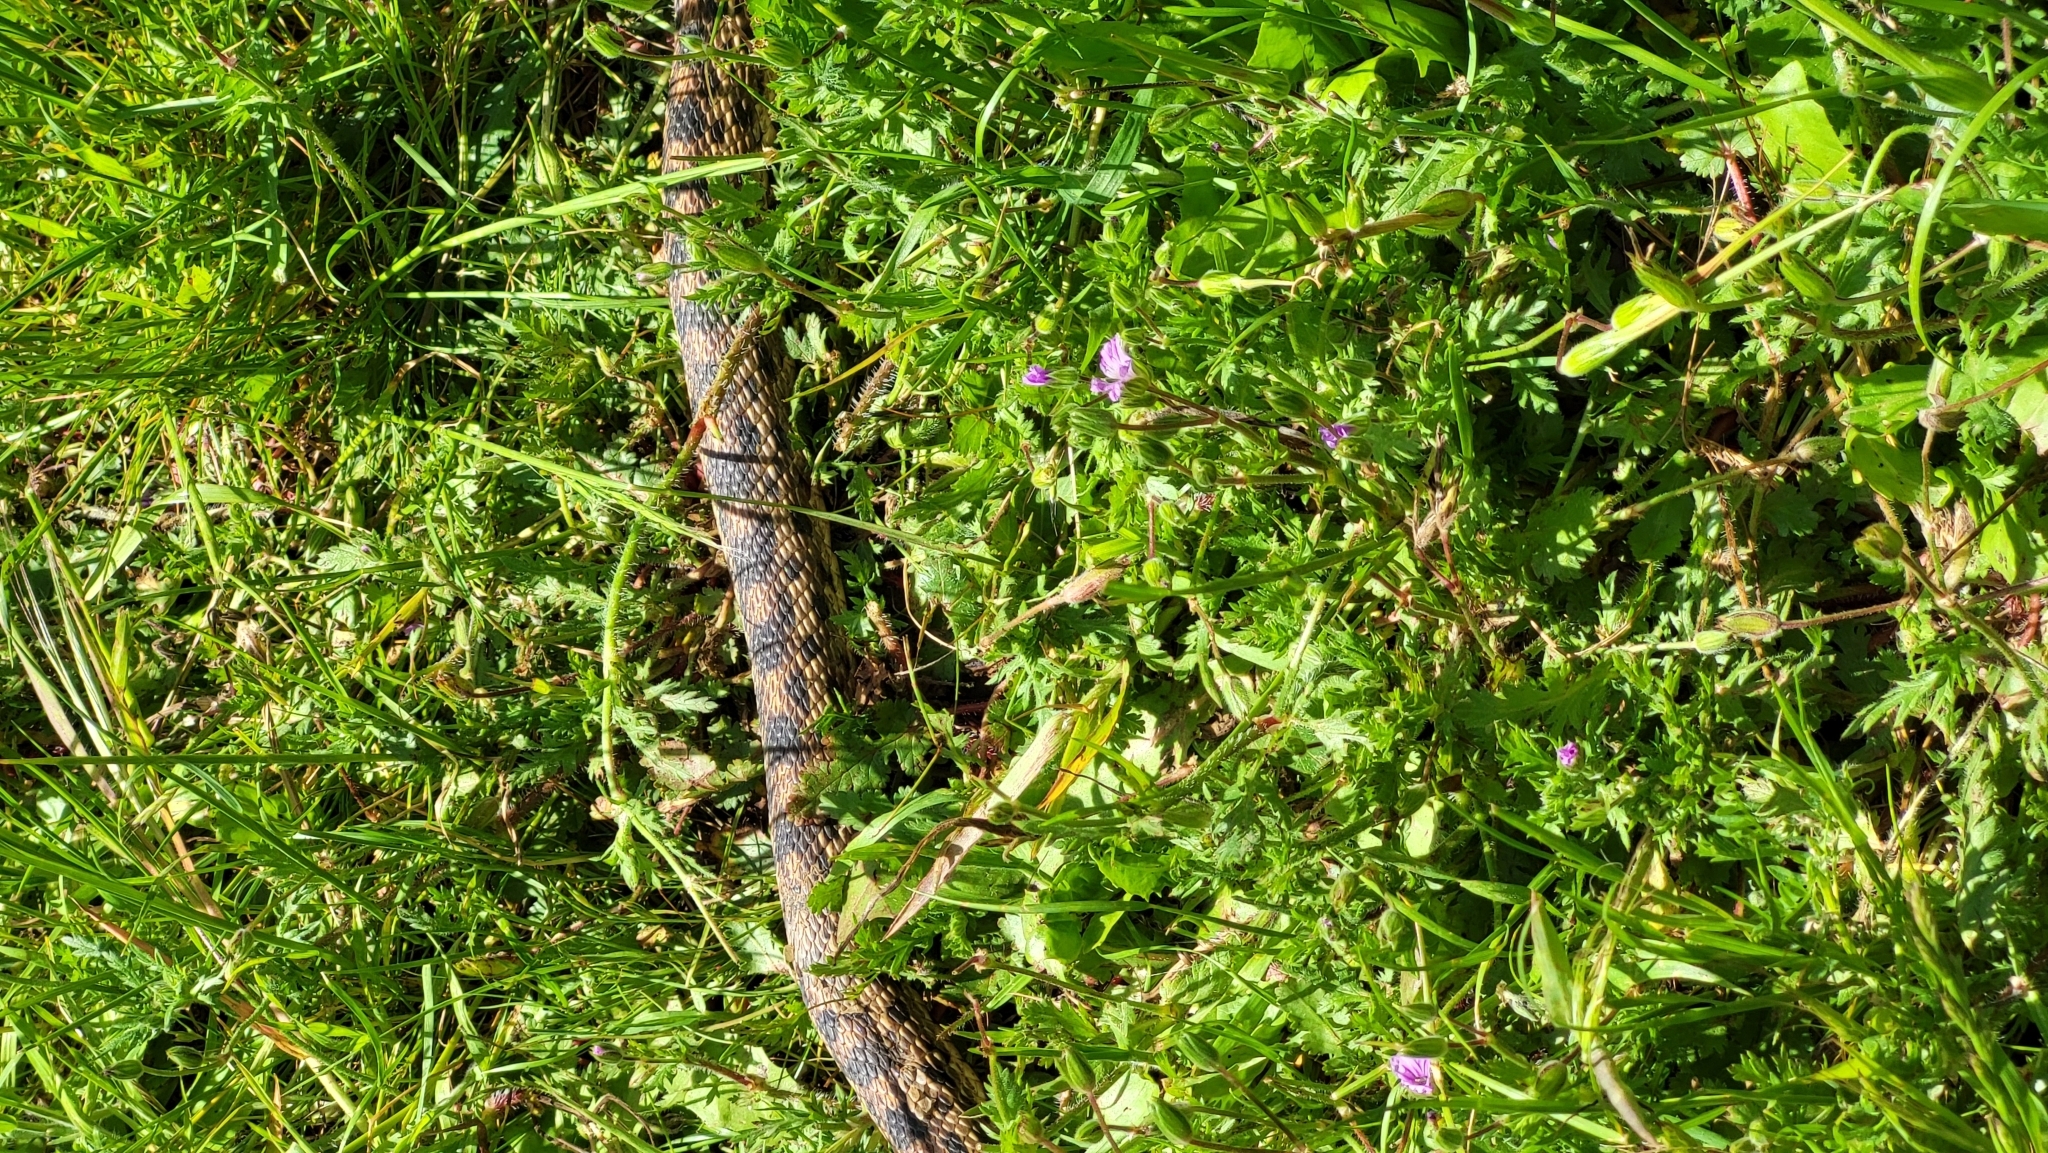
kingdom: Animalia
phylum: Chordata
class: Squamata
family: Colubridae
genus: Pituophis
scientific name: Pituophis catenifer
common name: Gopher snake
